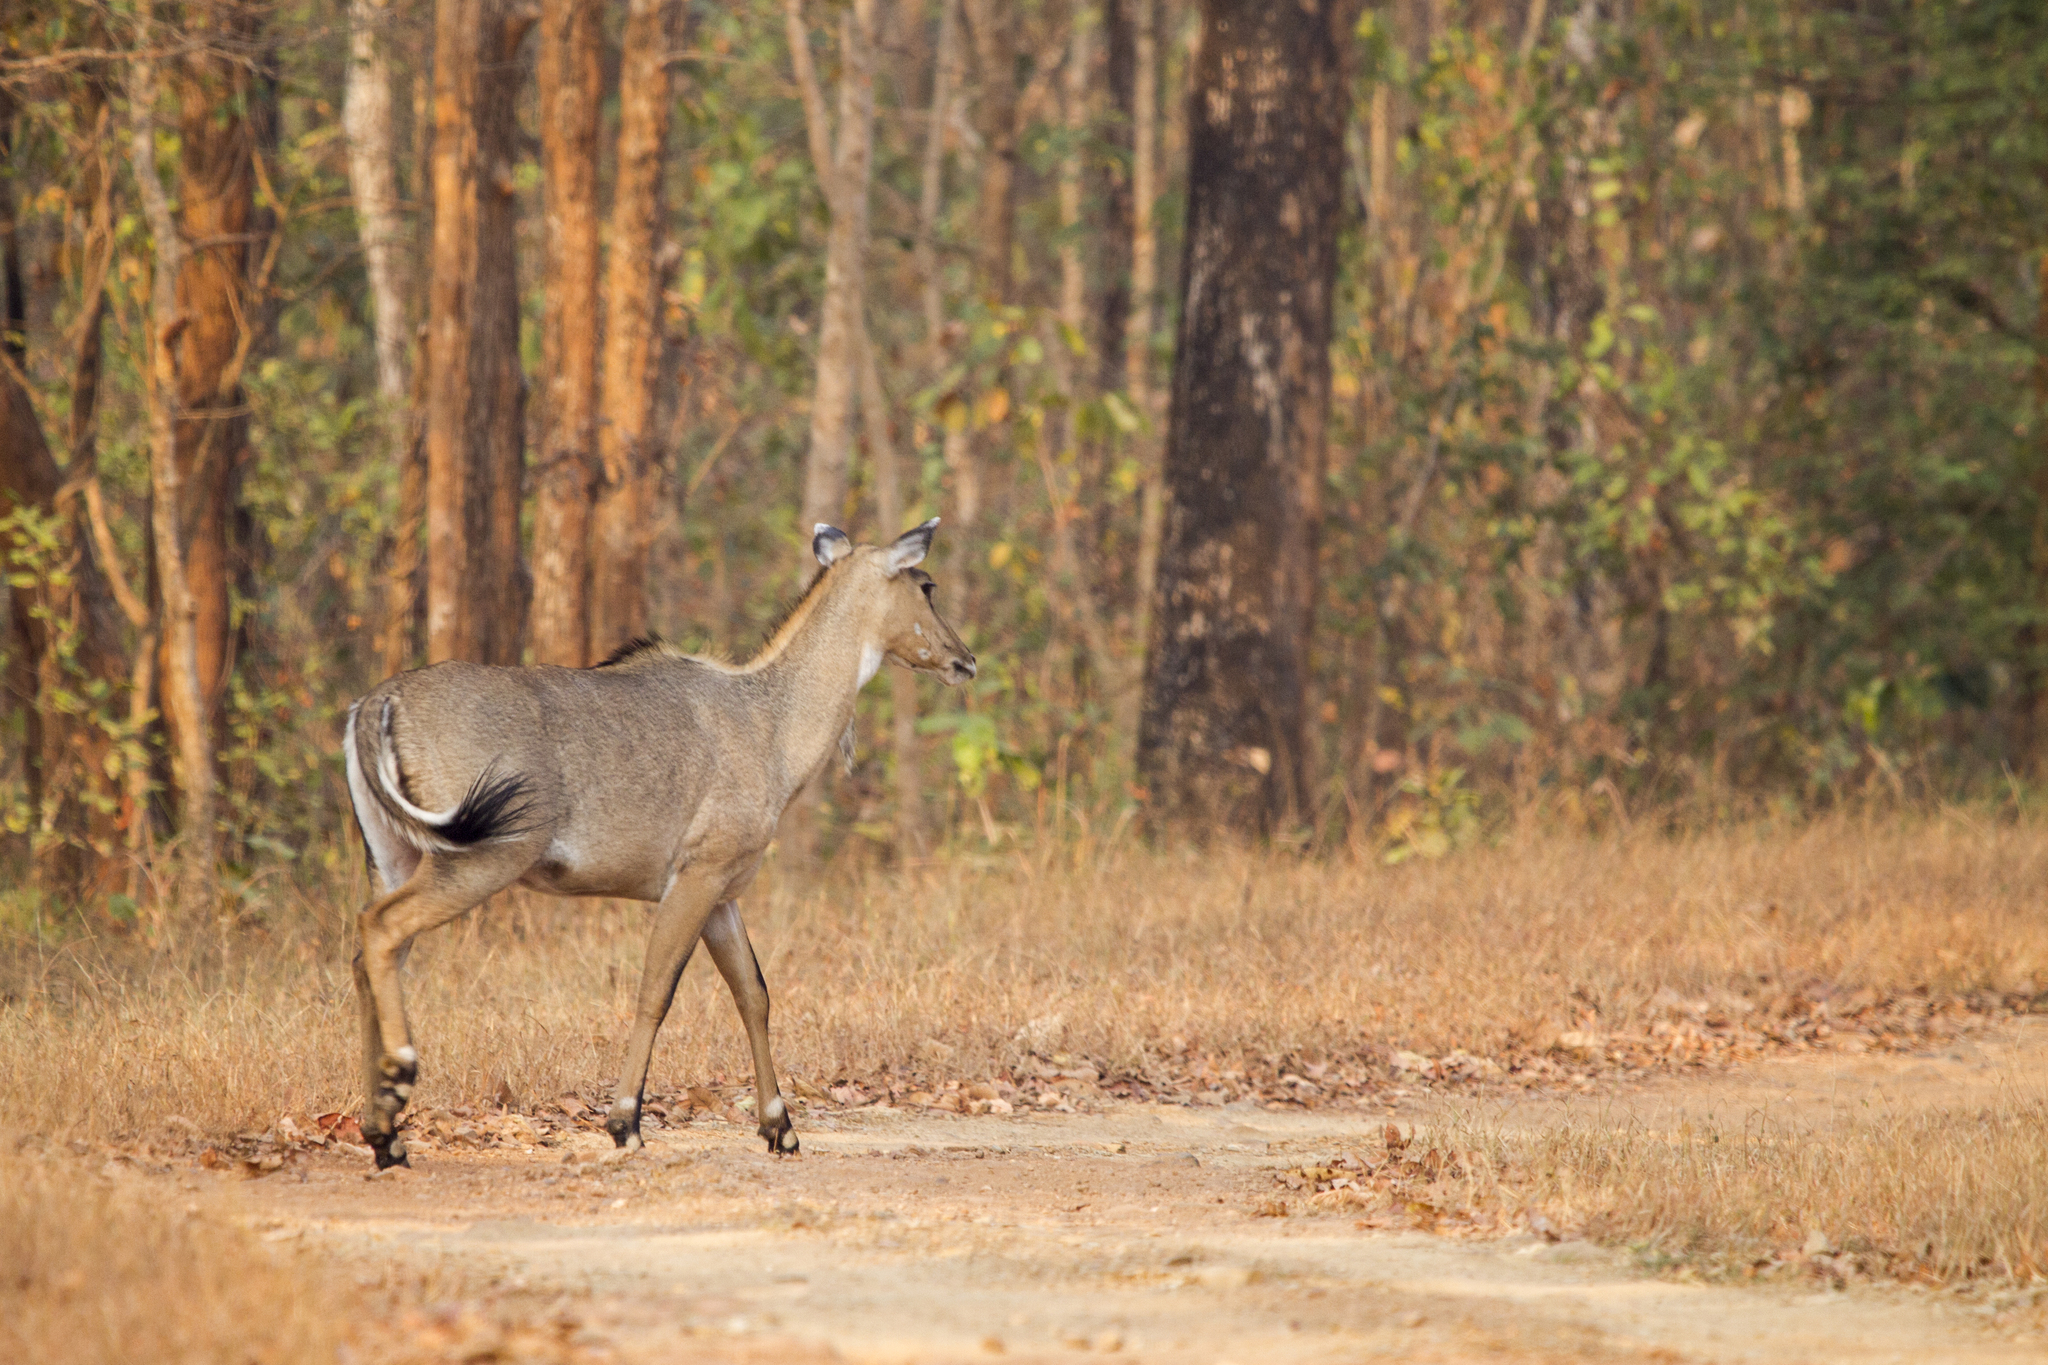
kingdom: Animalia
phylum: Chordata
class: Mammalia
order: Artiodactyla
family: Bovidae
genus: Boselaphus
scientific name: Boselaphus tragocamelus
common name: Nilgai
